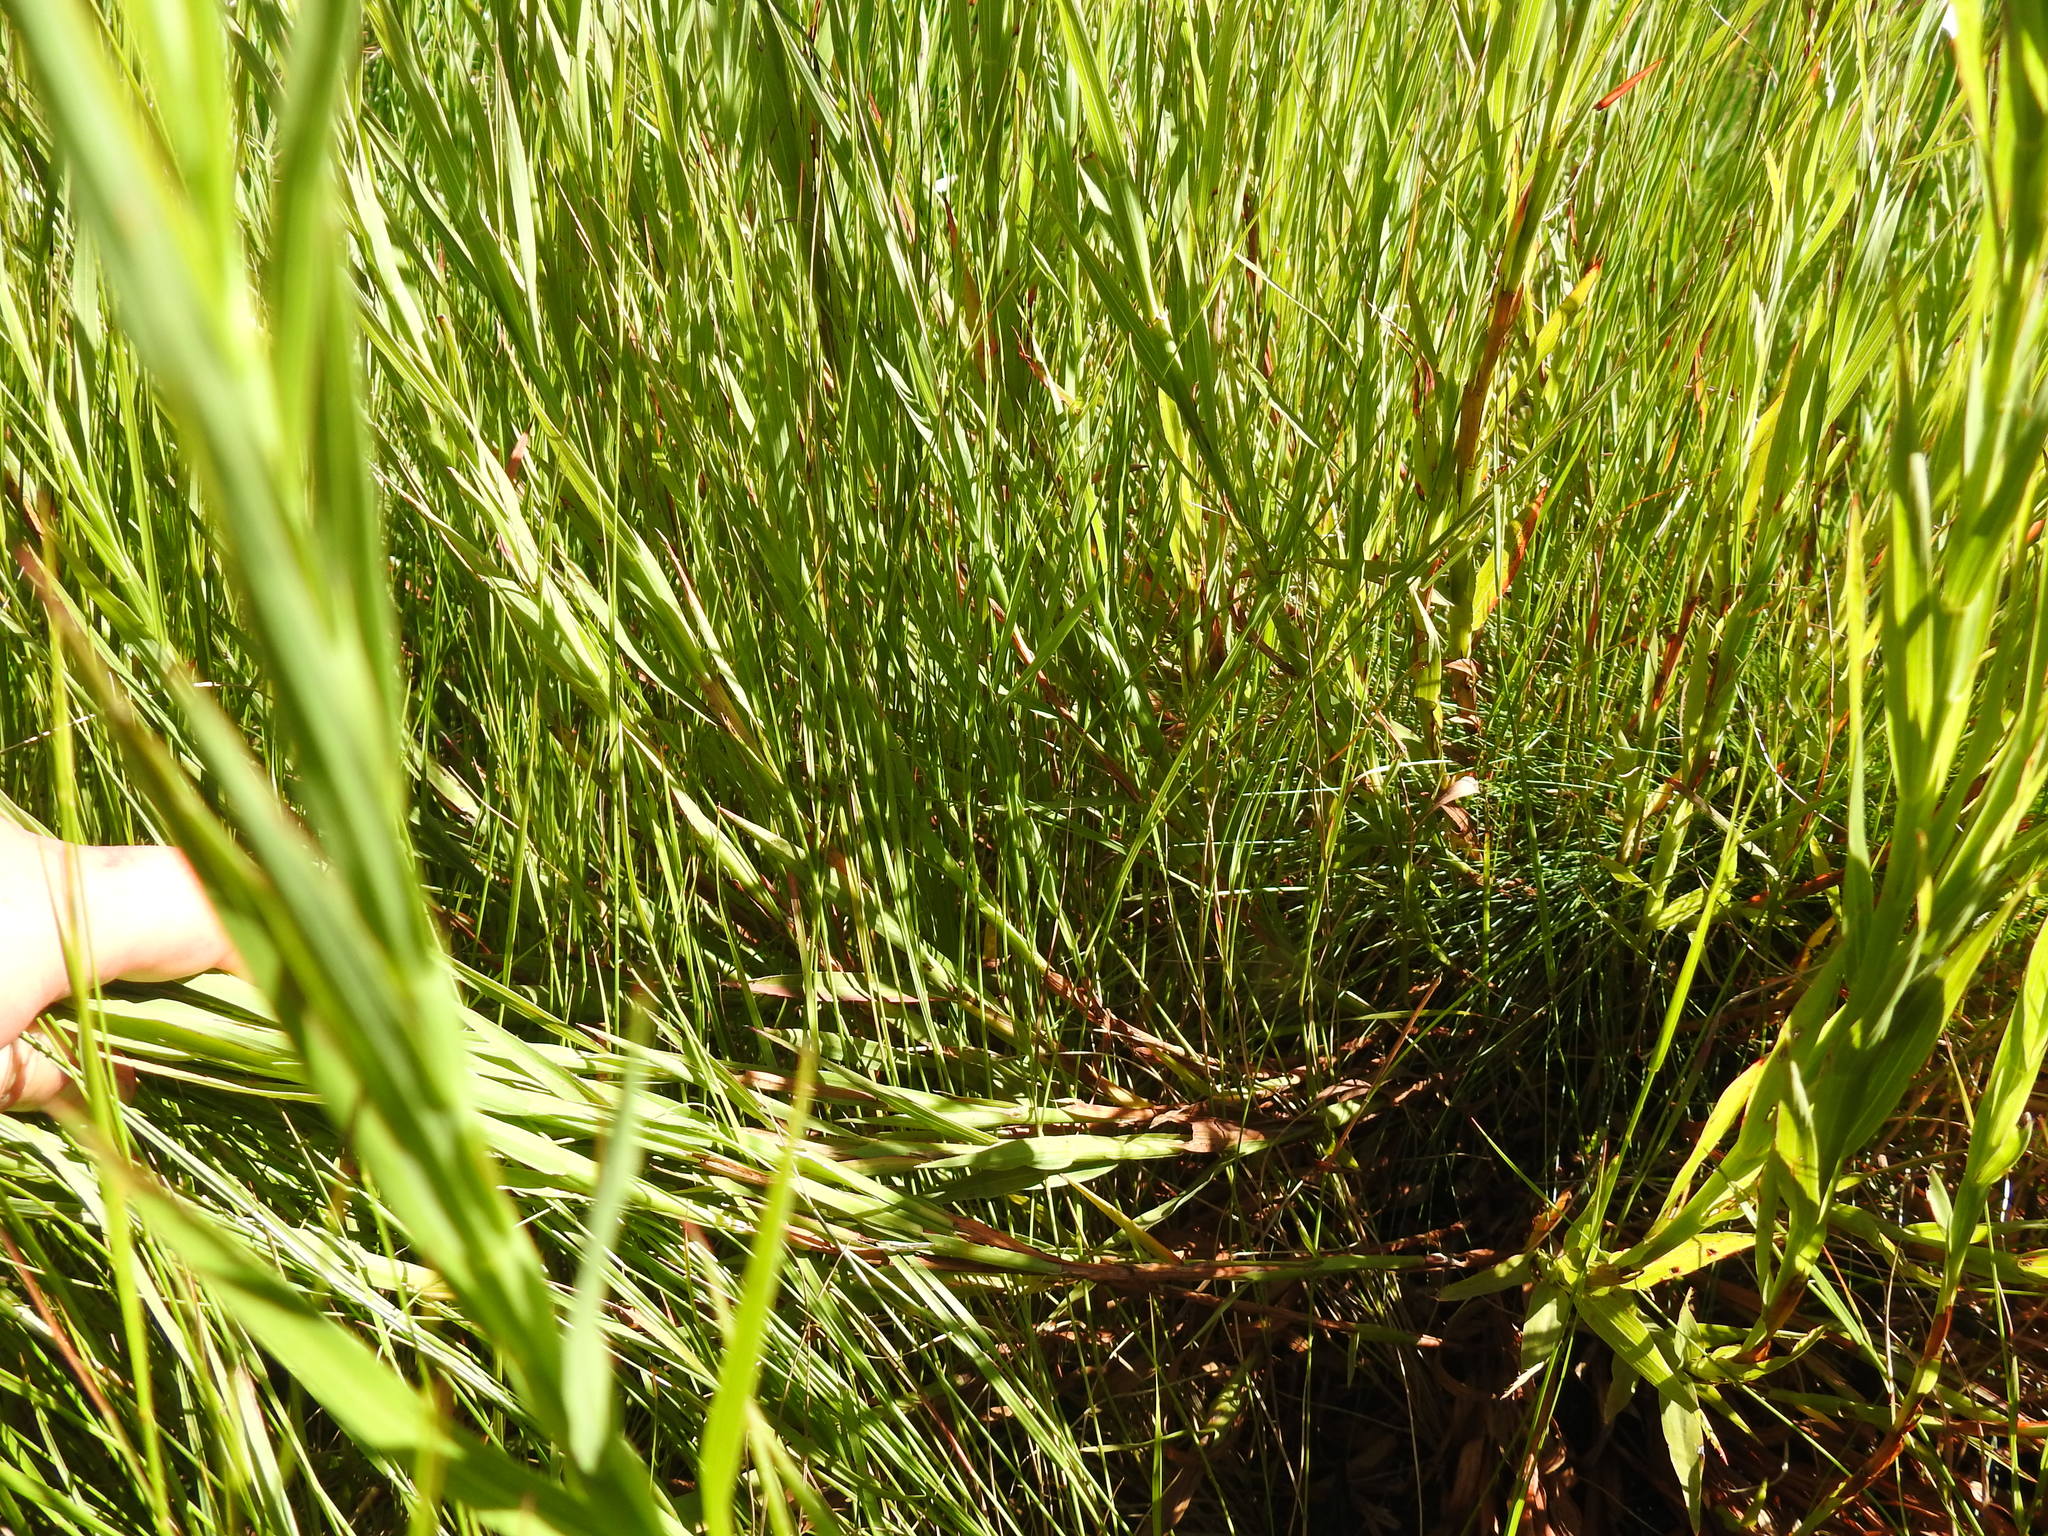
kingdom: Plantae
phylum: Tracheophyta
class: Magnoliopsida
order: Rosales
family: Rosaceae
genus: Cliffortia
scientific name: Cliffortia graminea
